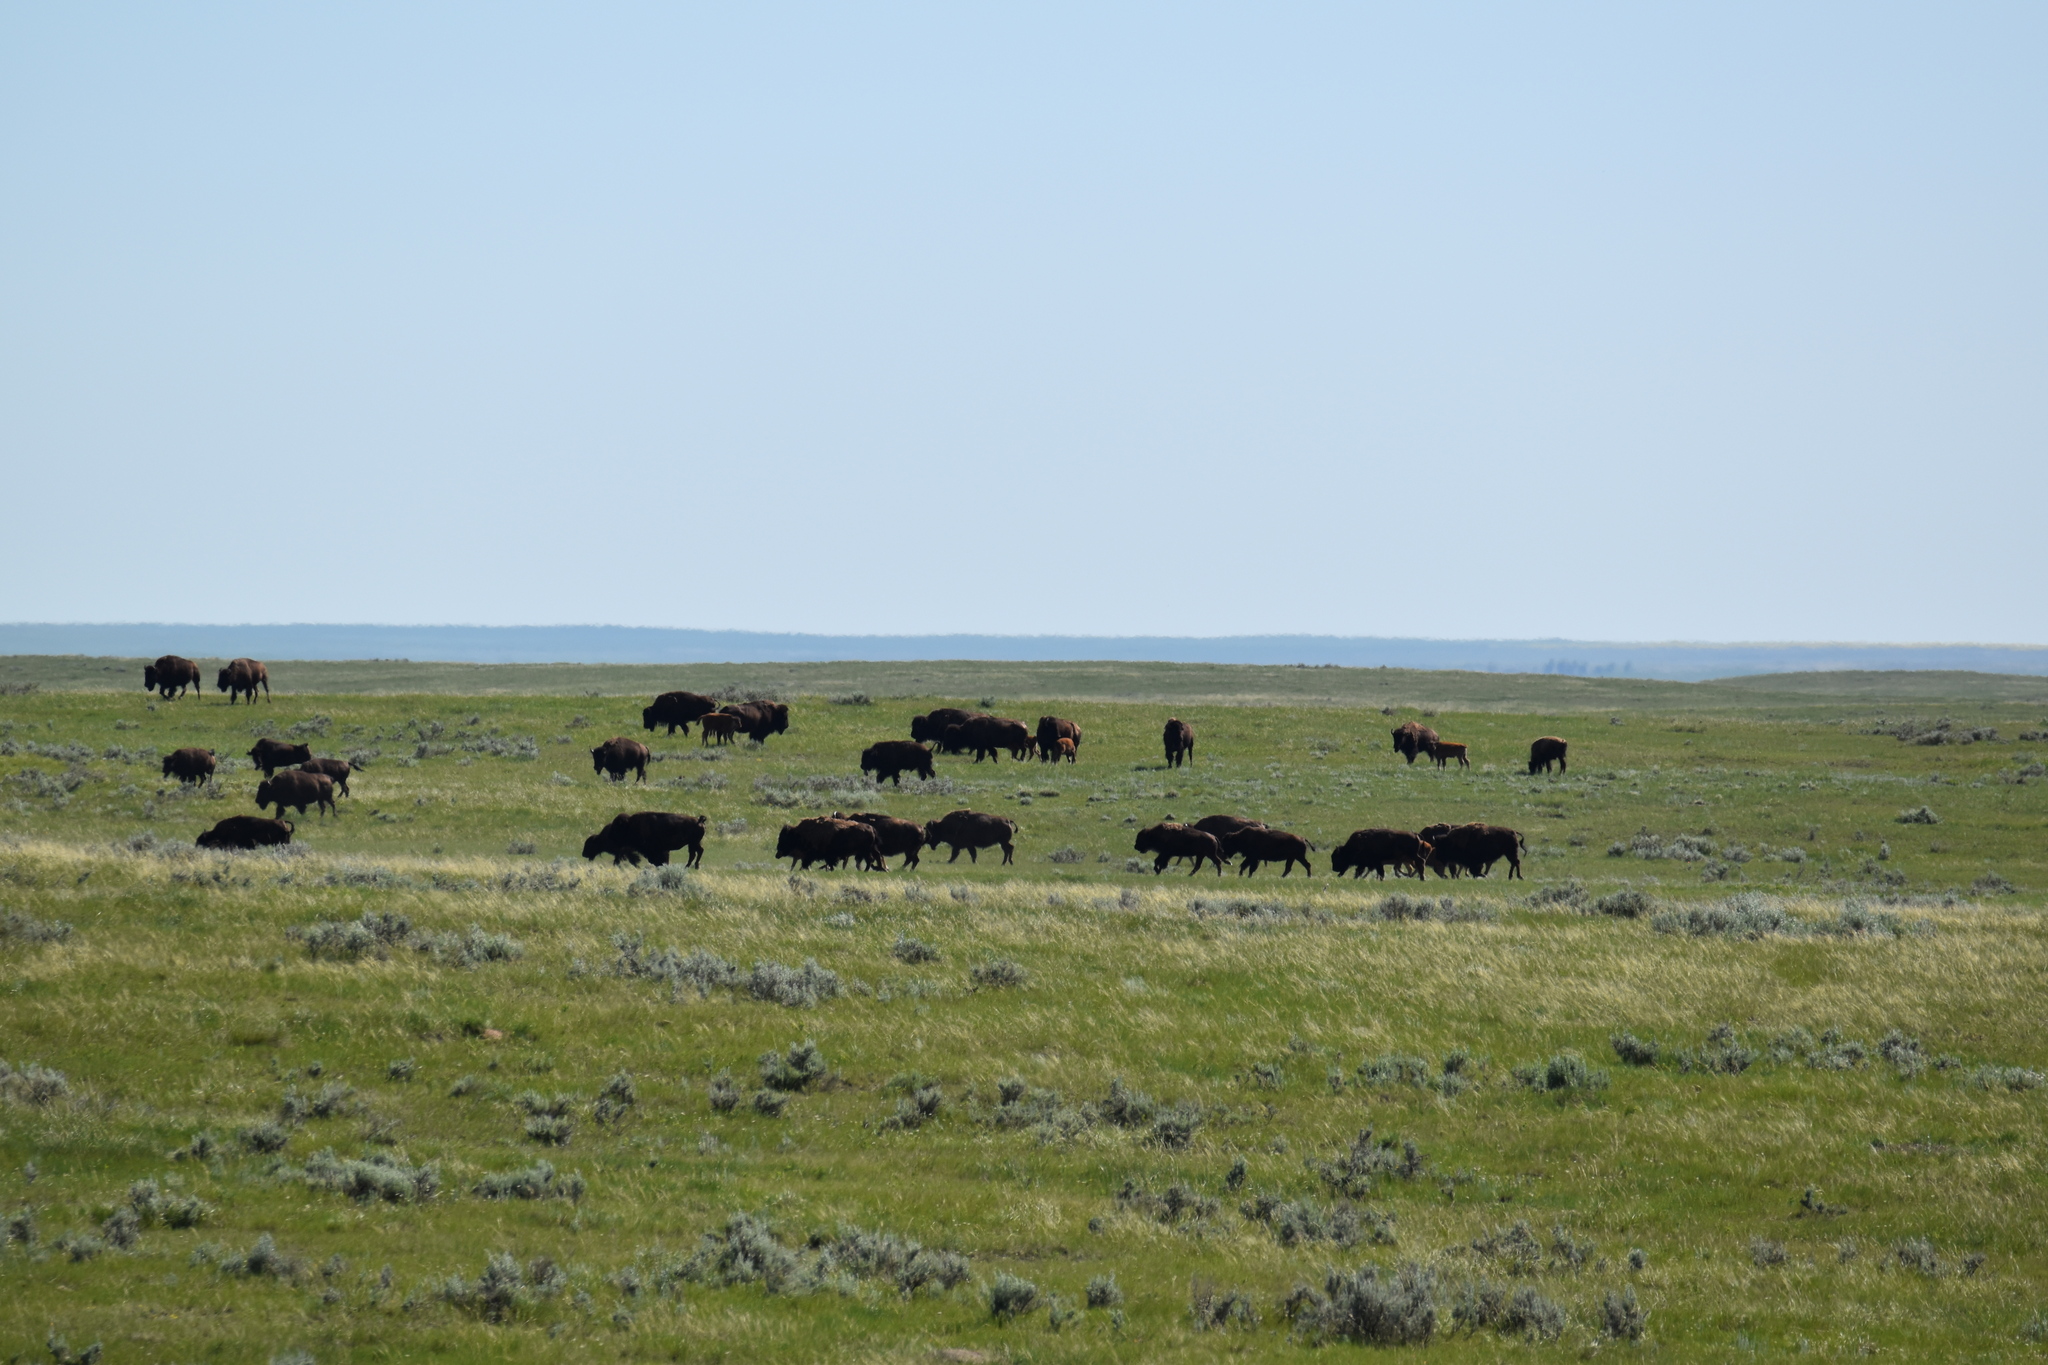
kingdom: Animalia
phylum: Chordata
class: Mammalia
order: Artiodactyla
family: Bovidae
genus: Bison
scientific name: Bison bison
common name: American bison
